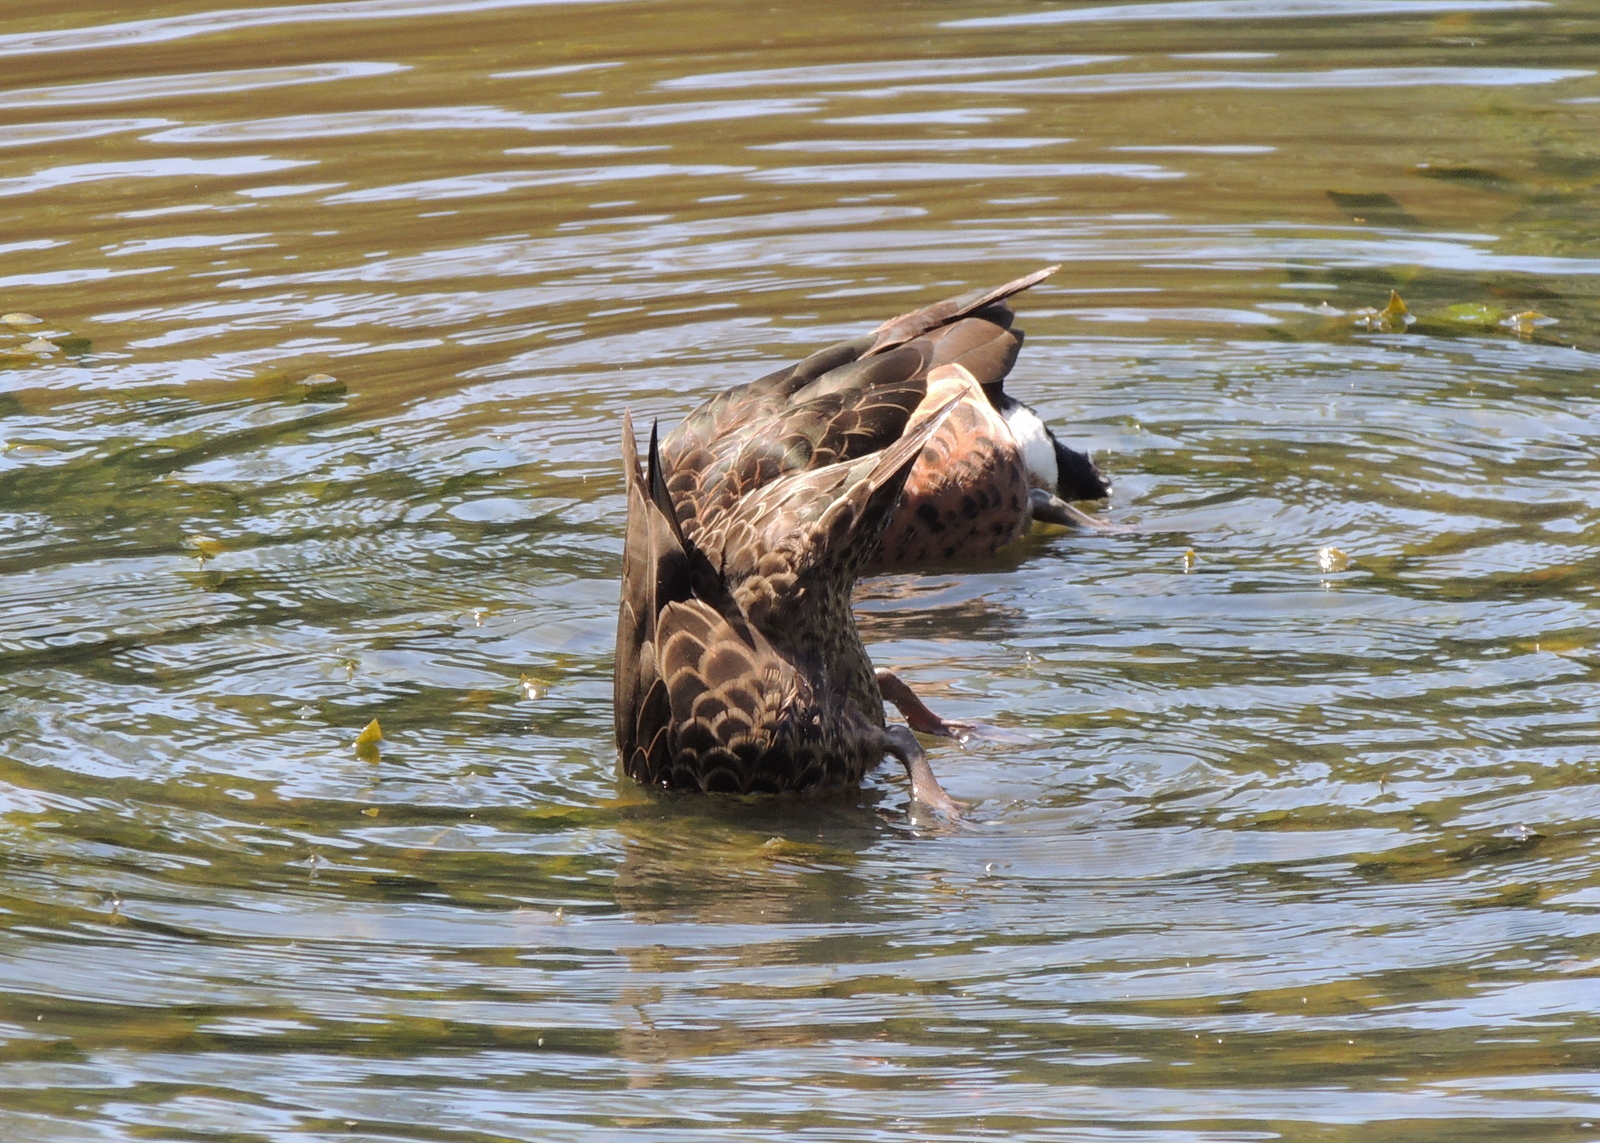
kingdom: Animalia
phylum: Chordata
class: Aves
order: Anseriformes
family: Anatidae
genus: Anas
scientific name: Anas castanea
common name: Chestnut teal
